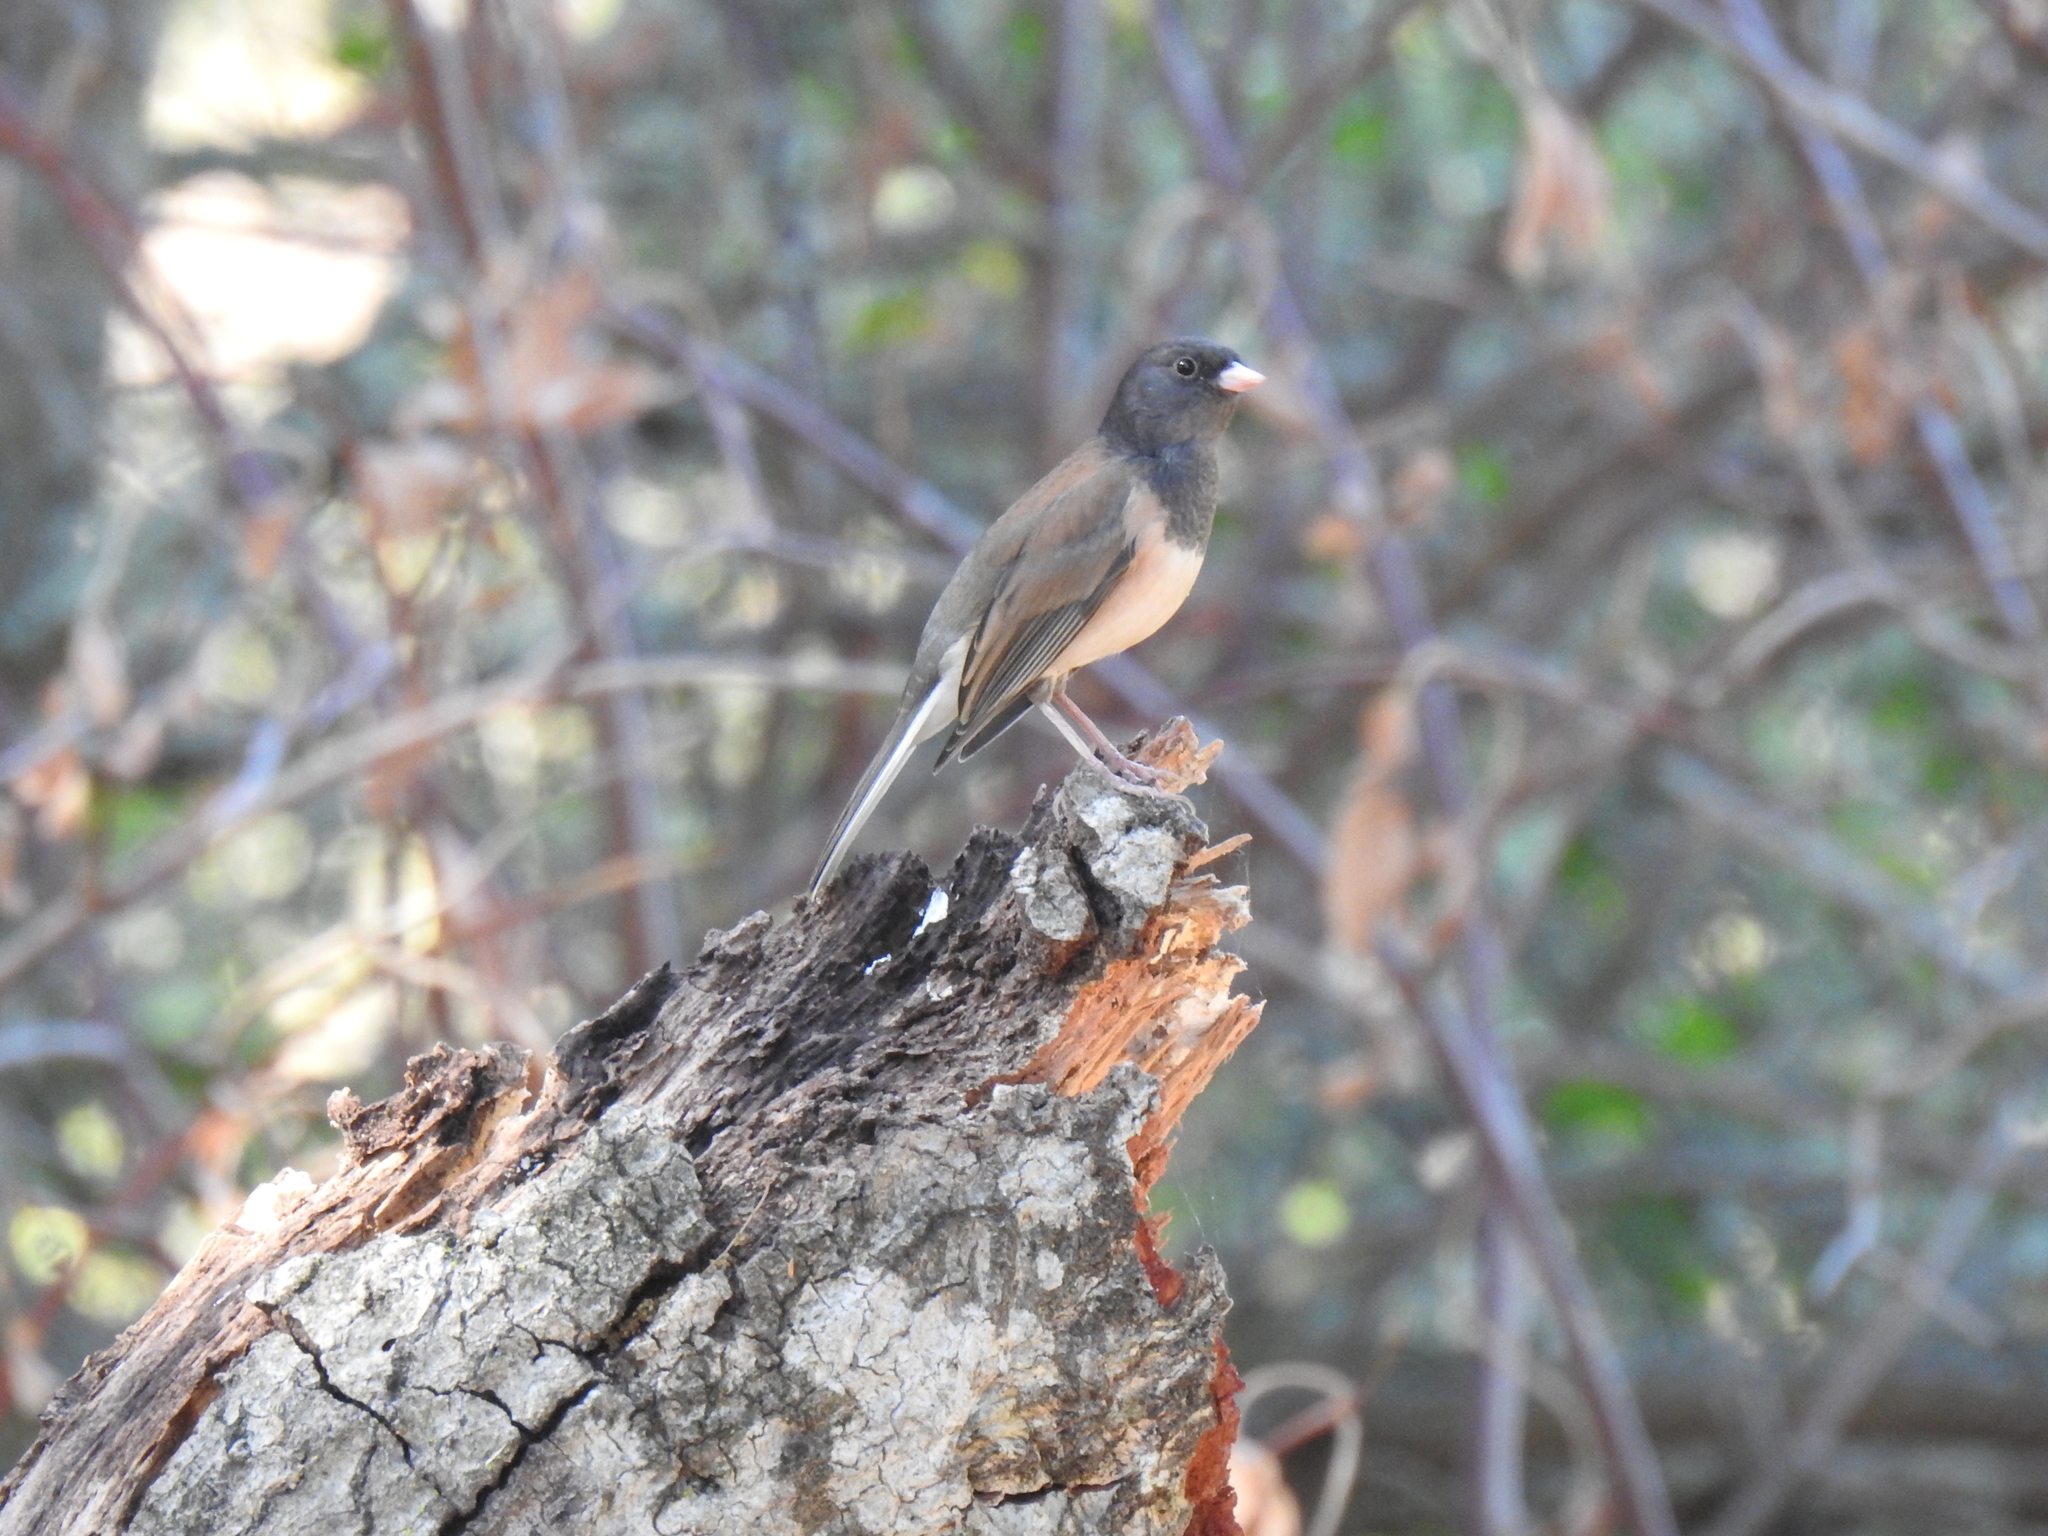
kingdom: Animalia
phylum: Chordata
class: Aves
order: Passeriformes
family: Passerellidae
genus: Junco
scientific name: Junco hyemalis
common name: Dark-eyed junco
